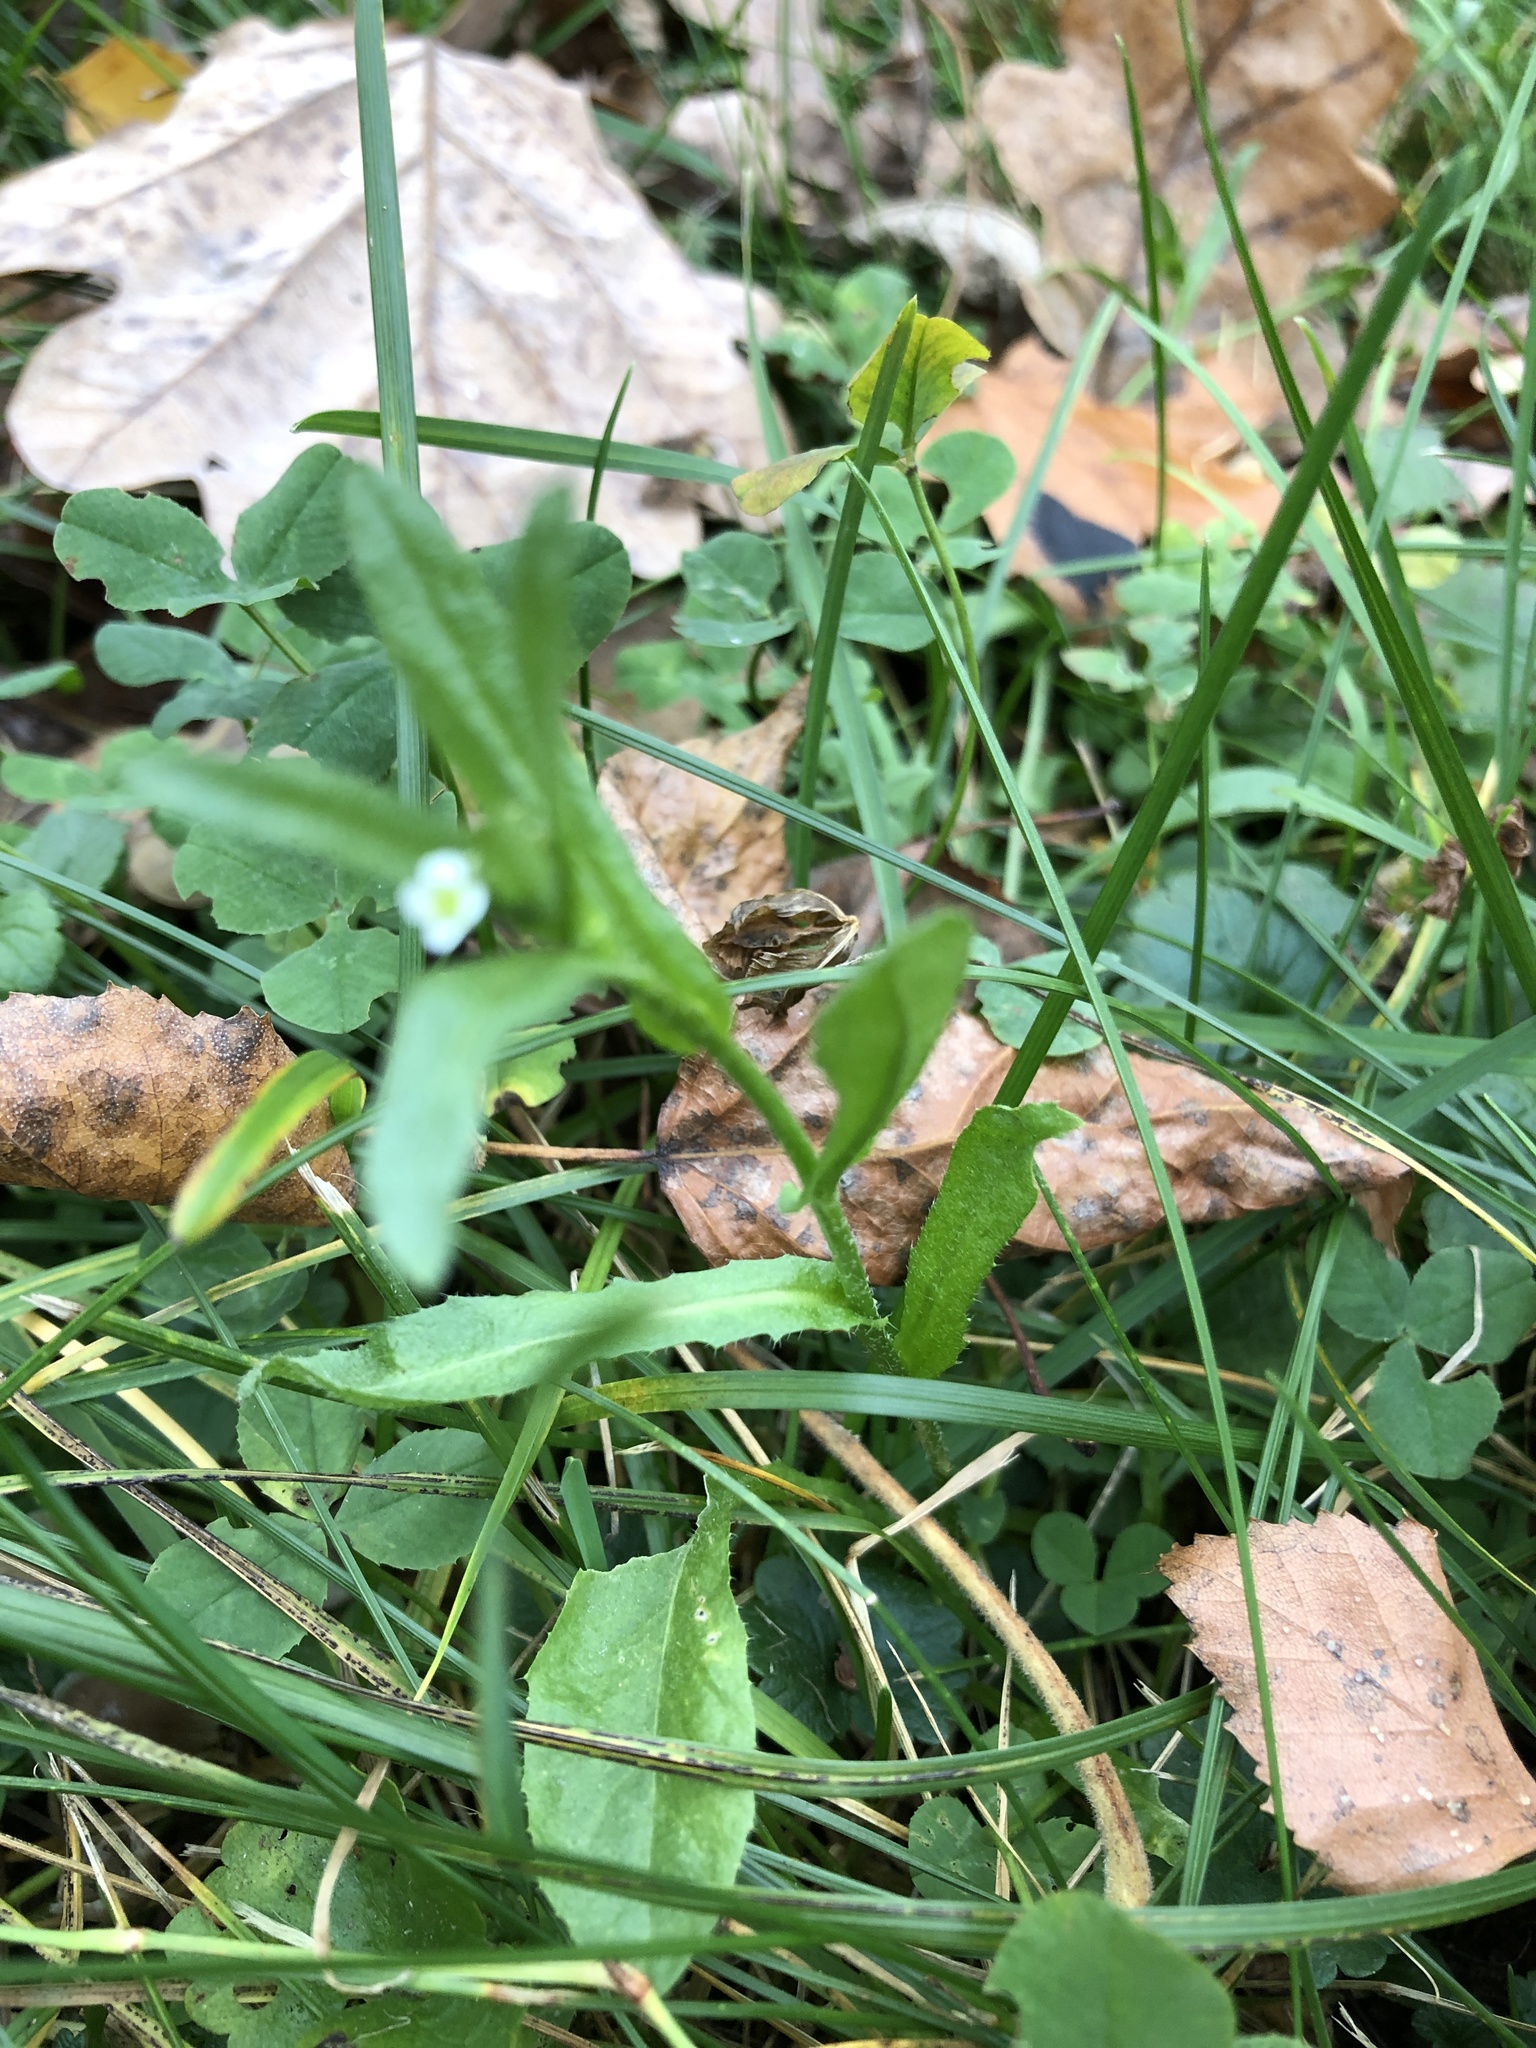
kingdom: Plantae
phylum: Tracheophyta
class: Magnoliopsida
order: Brassicales
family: Brassicaceae
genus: Capsella
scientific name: Capsella bursa-pastoris
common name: Shepherd's purse
